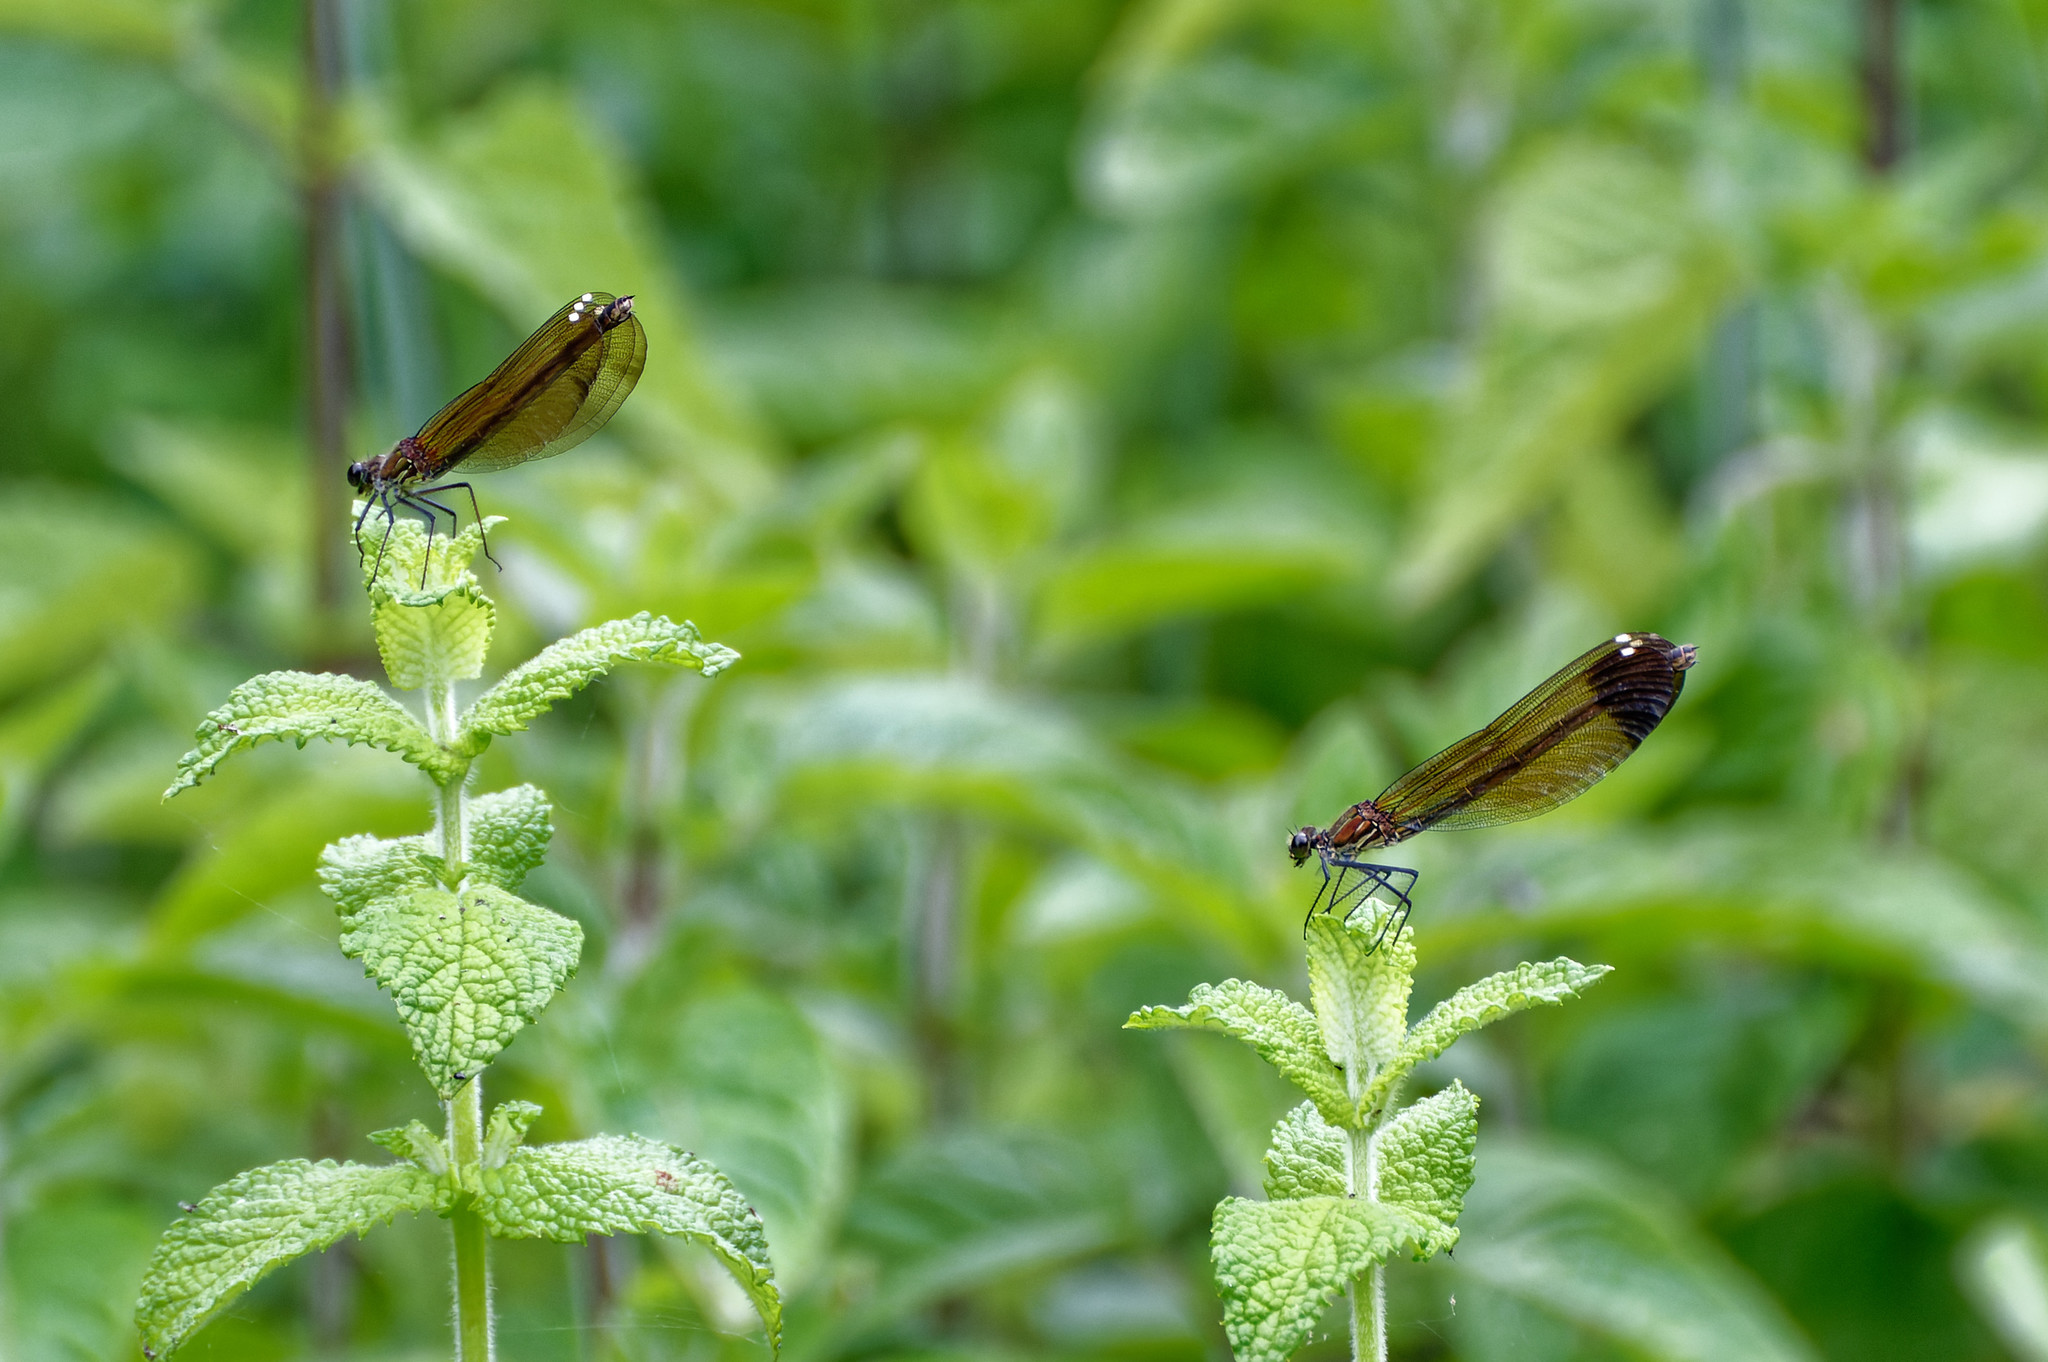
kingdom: Animalia
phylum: Arthropoda
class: Insecta
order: Odonata
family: Calopterygidae
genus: Calopteryx
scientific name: Calopteryx haemorrhoidalis
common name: Copper demoiselle
